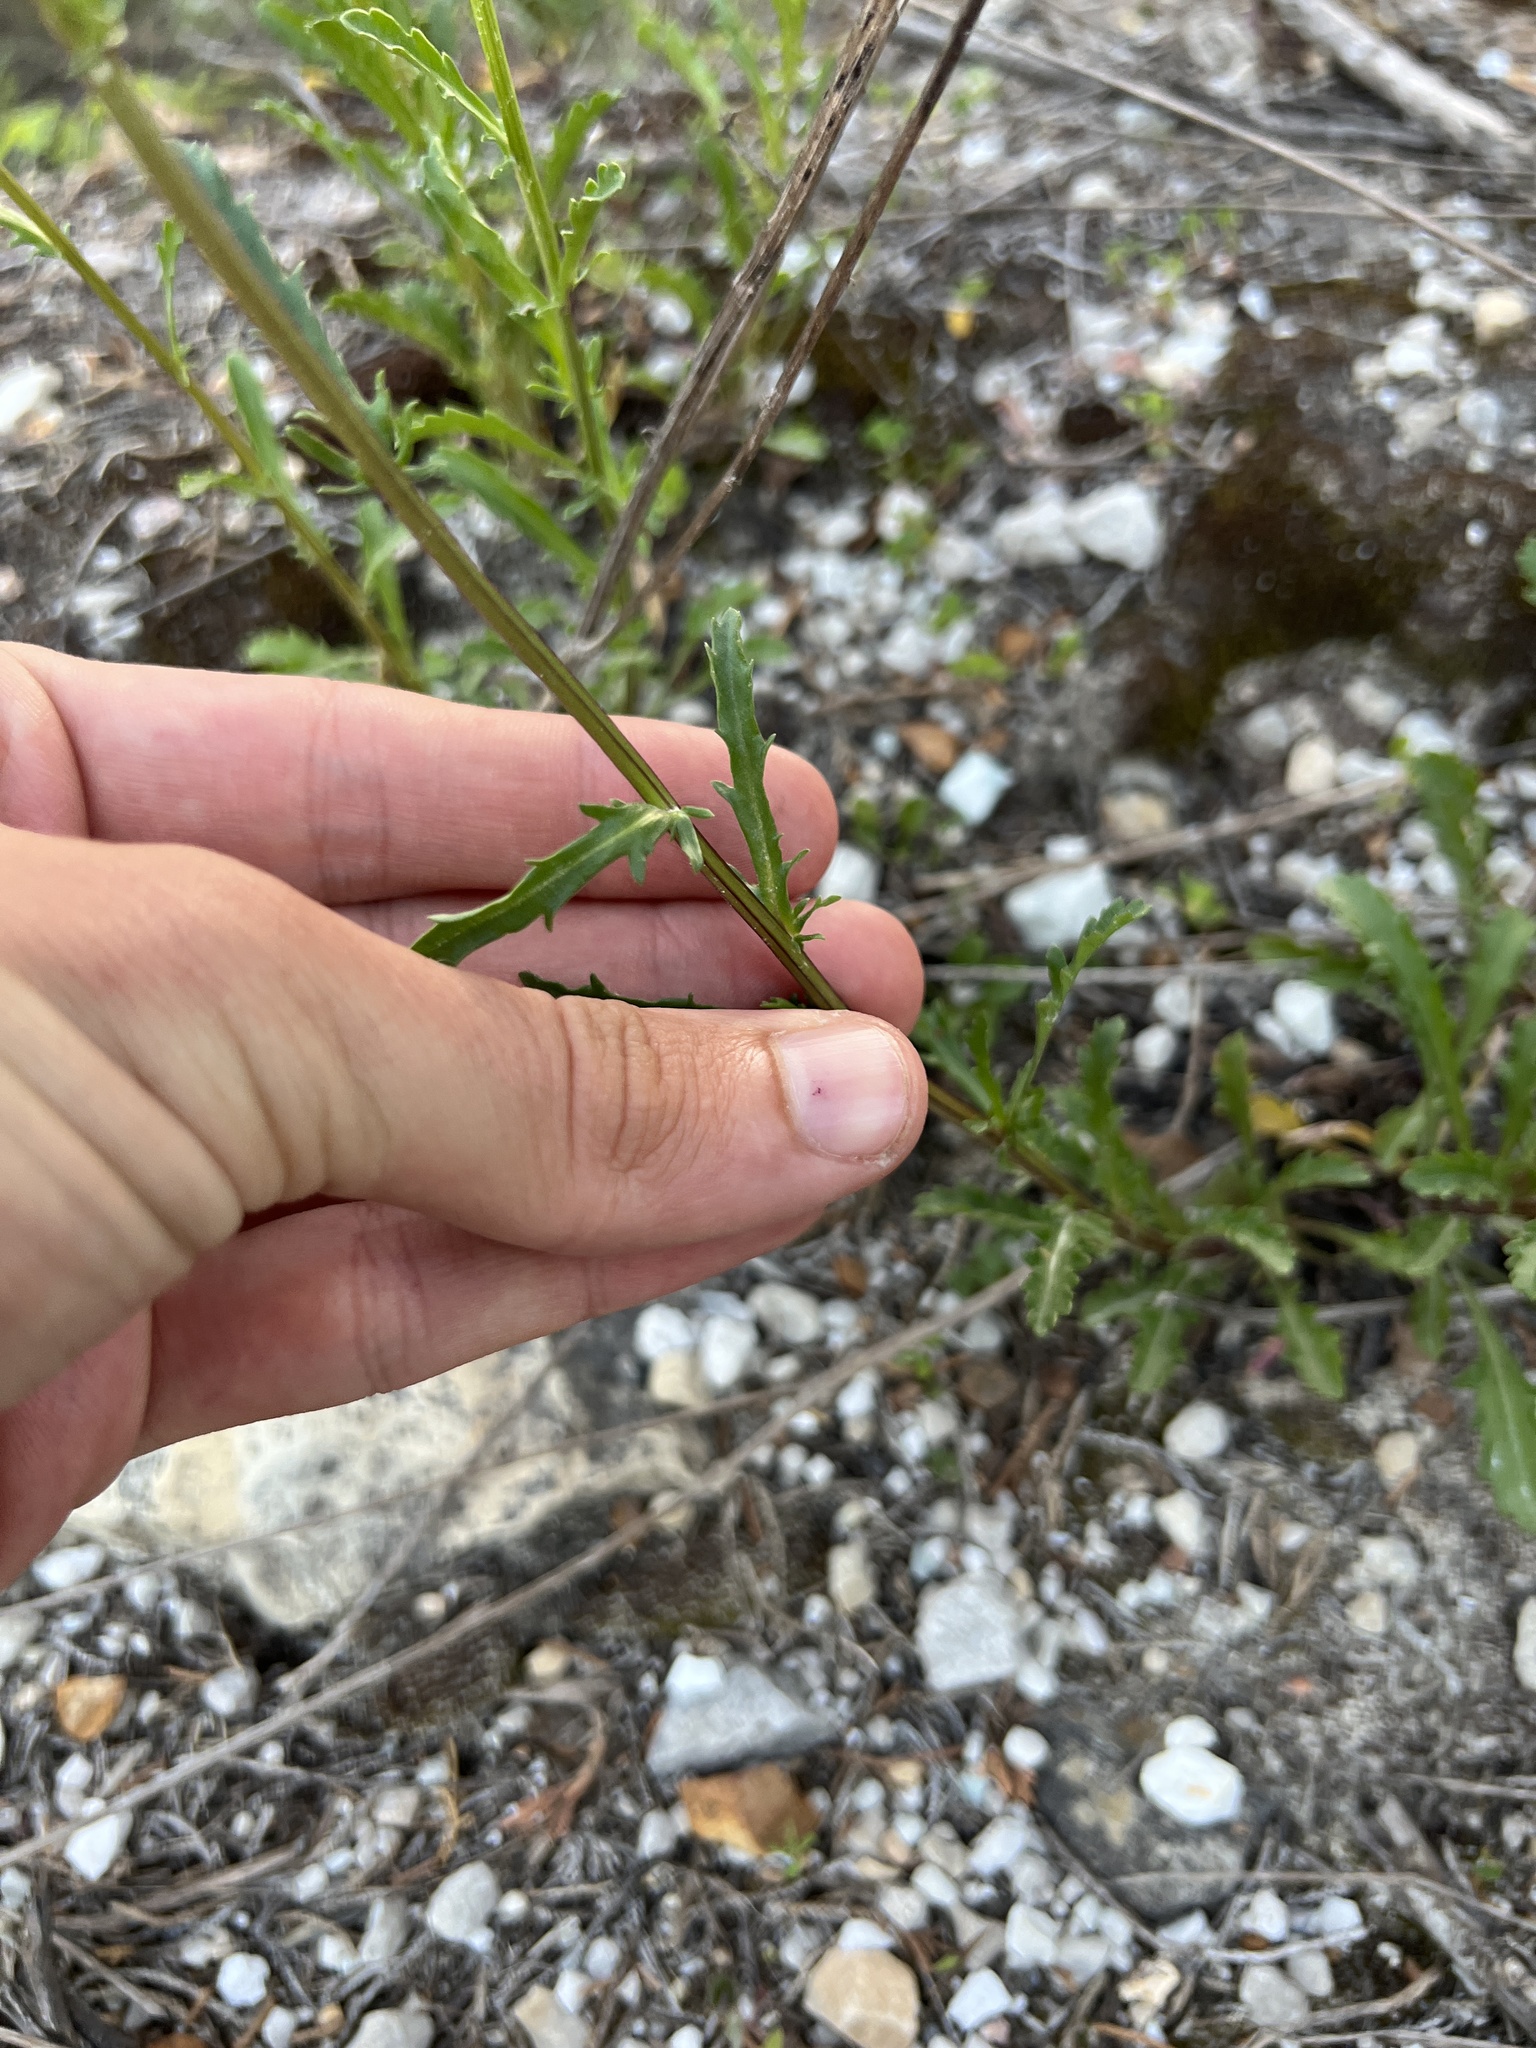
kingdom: Plantae
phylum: Tracheophyta
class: Magnoliopsida
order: Asterales
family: Asteraceae
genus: Leucanthemum
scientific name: Leucanthemum vulgare
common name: Oxeye daisy
